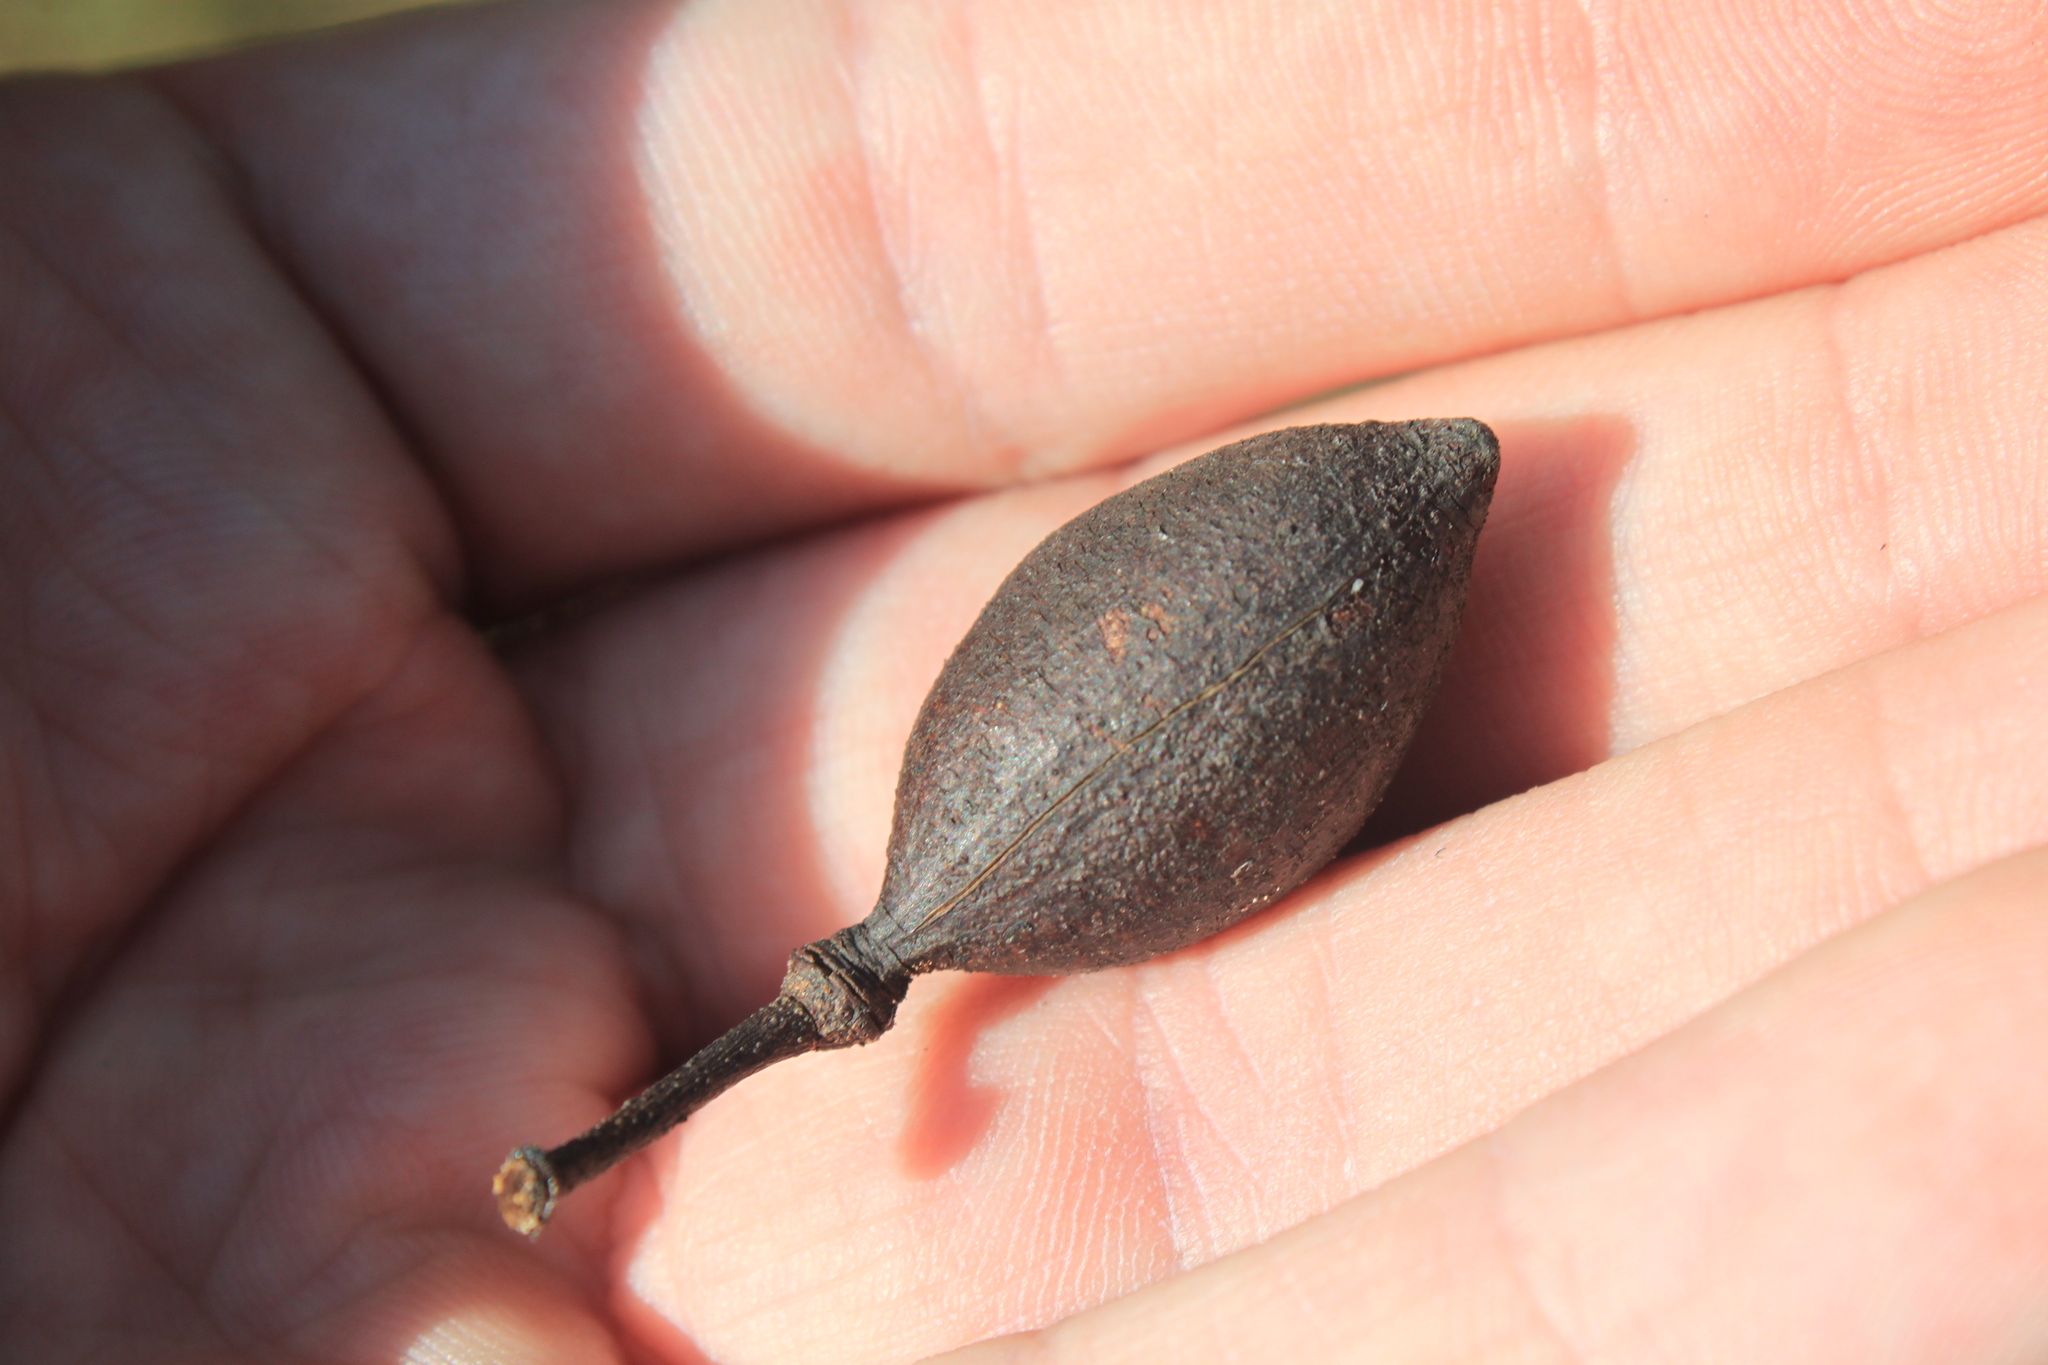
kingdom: Plantae
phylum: Tracheophyta
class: Magnoliopsida
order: Fabales
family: Fabaceae
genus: Vachellia
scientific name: Vachellia caven
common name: Roman cassie
